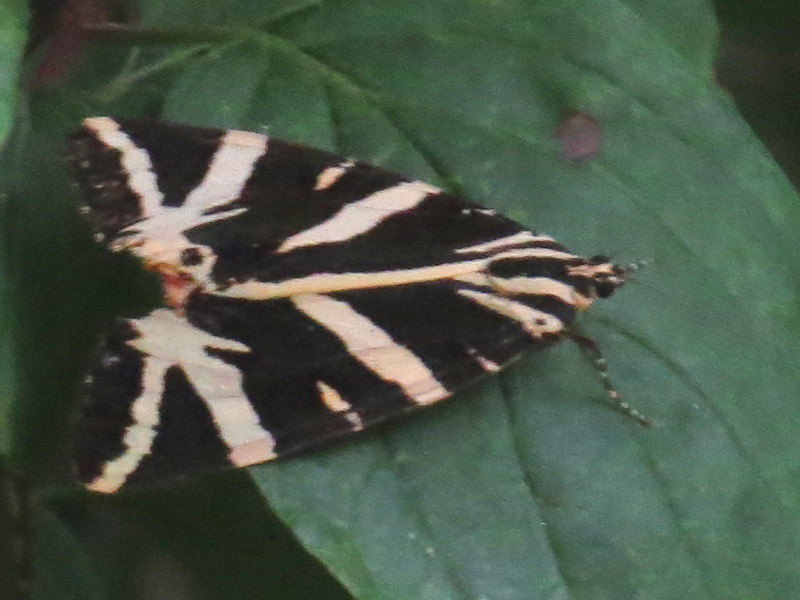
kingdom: Animalia
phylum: Arthropoda
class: Insecta
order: Lepidoptera
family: Erebidae
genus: Euplagia
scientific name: Euplagia quadripunctaria
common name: Jersey tiger
